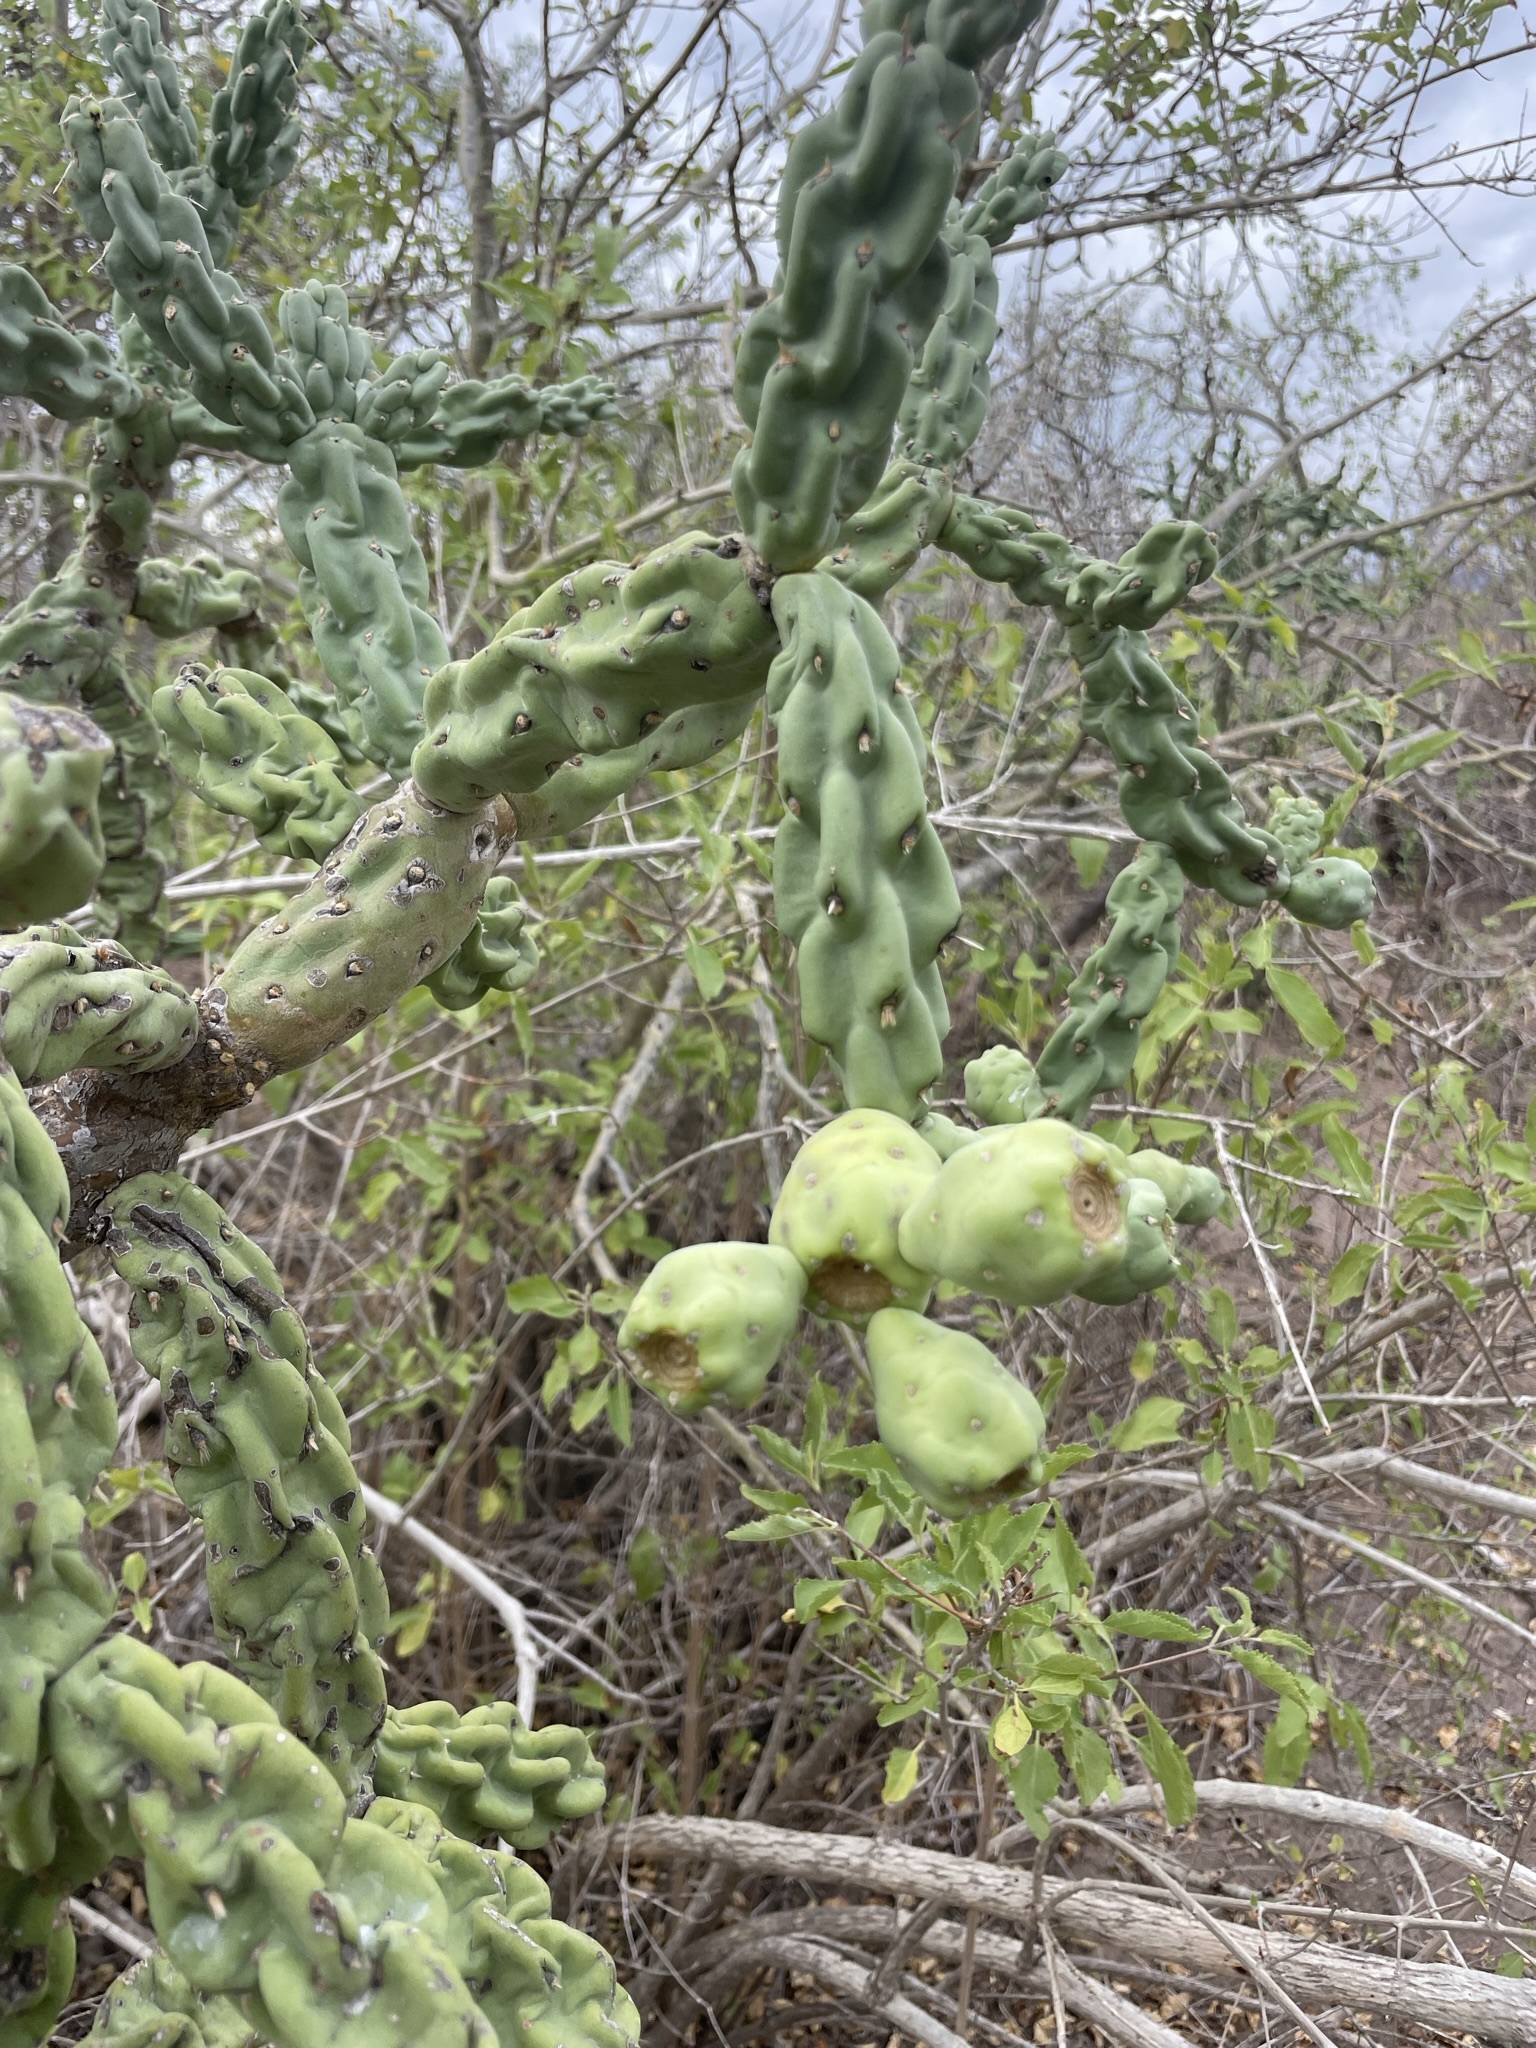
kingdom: Plantae
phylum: Tracheophyta
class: Magnoliopsida
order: Caryophyllales
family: Cactaceae
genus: Cylindropuntia
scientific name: Cylindropuntia cholla
